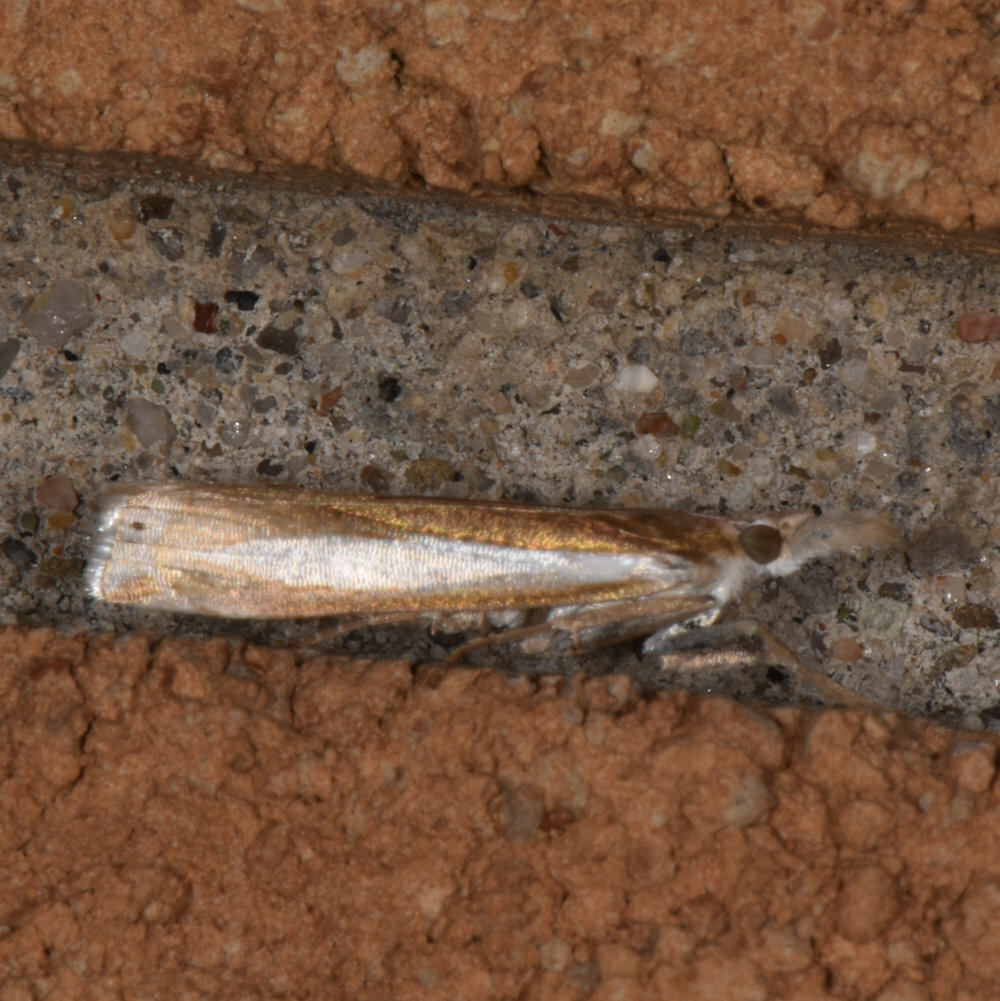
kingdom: Animalia
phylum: Arthropoda
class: Insecta
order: Lepidoptera
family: Crambidae
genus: Crambus
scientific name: Crambus praefectellus
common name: Common grass-veneer
